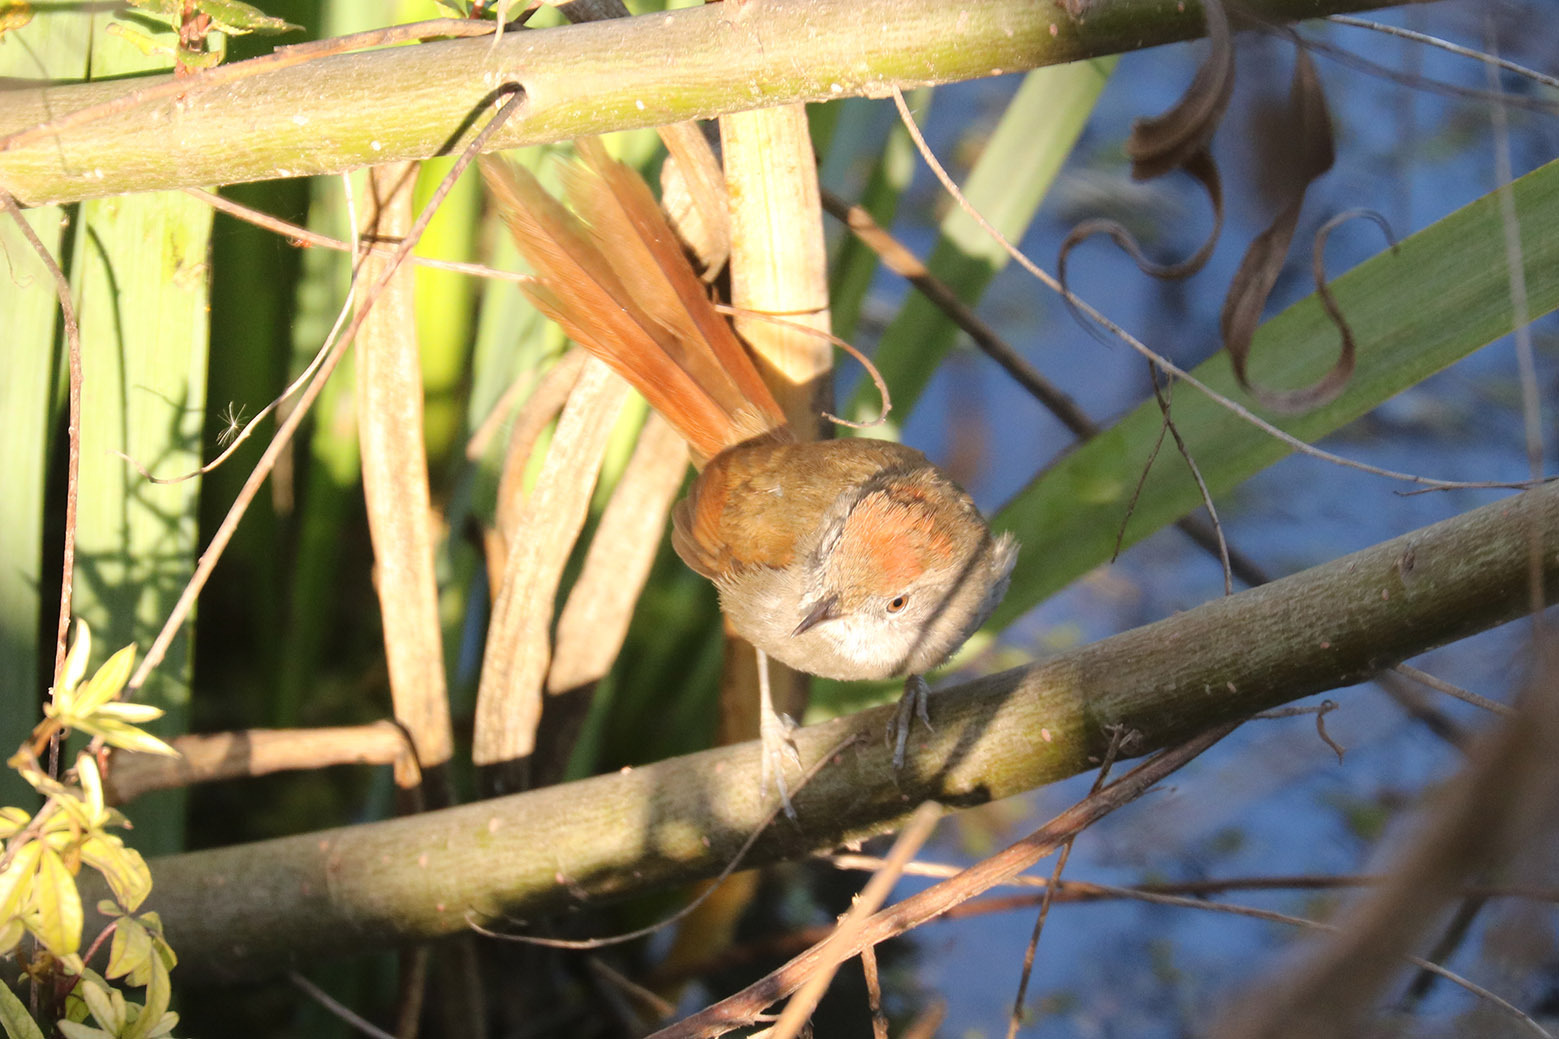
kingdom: Animalia
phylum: Chordata
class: Aves
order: Passeriformes
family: Furnariidae
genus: Synallaxis
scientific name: Synallaxis frontalis
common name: Sooty-fronted spinetail
